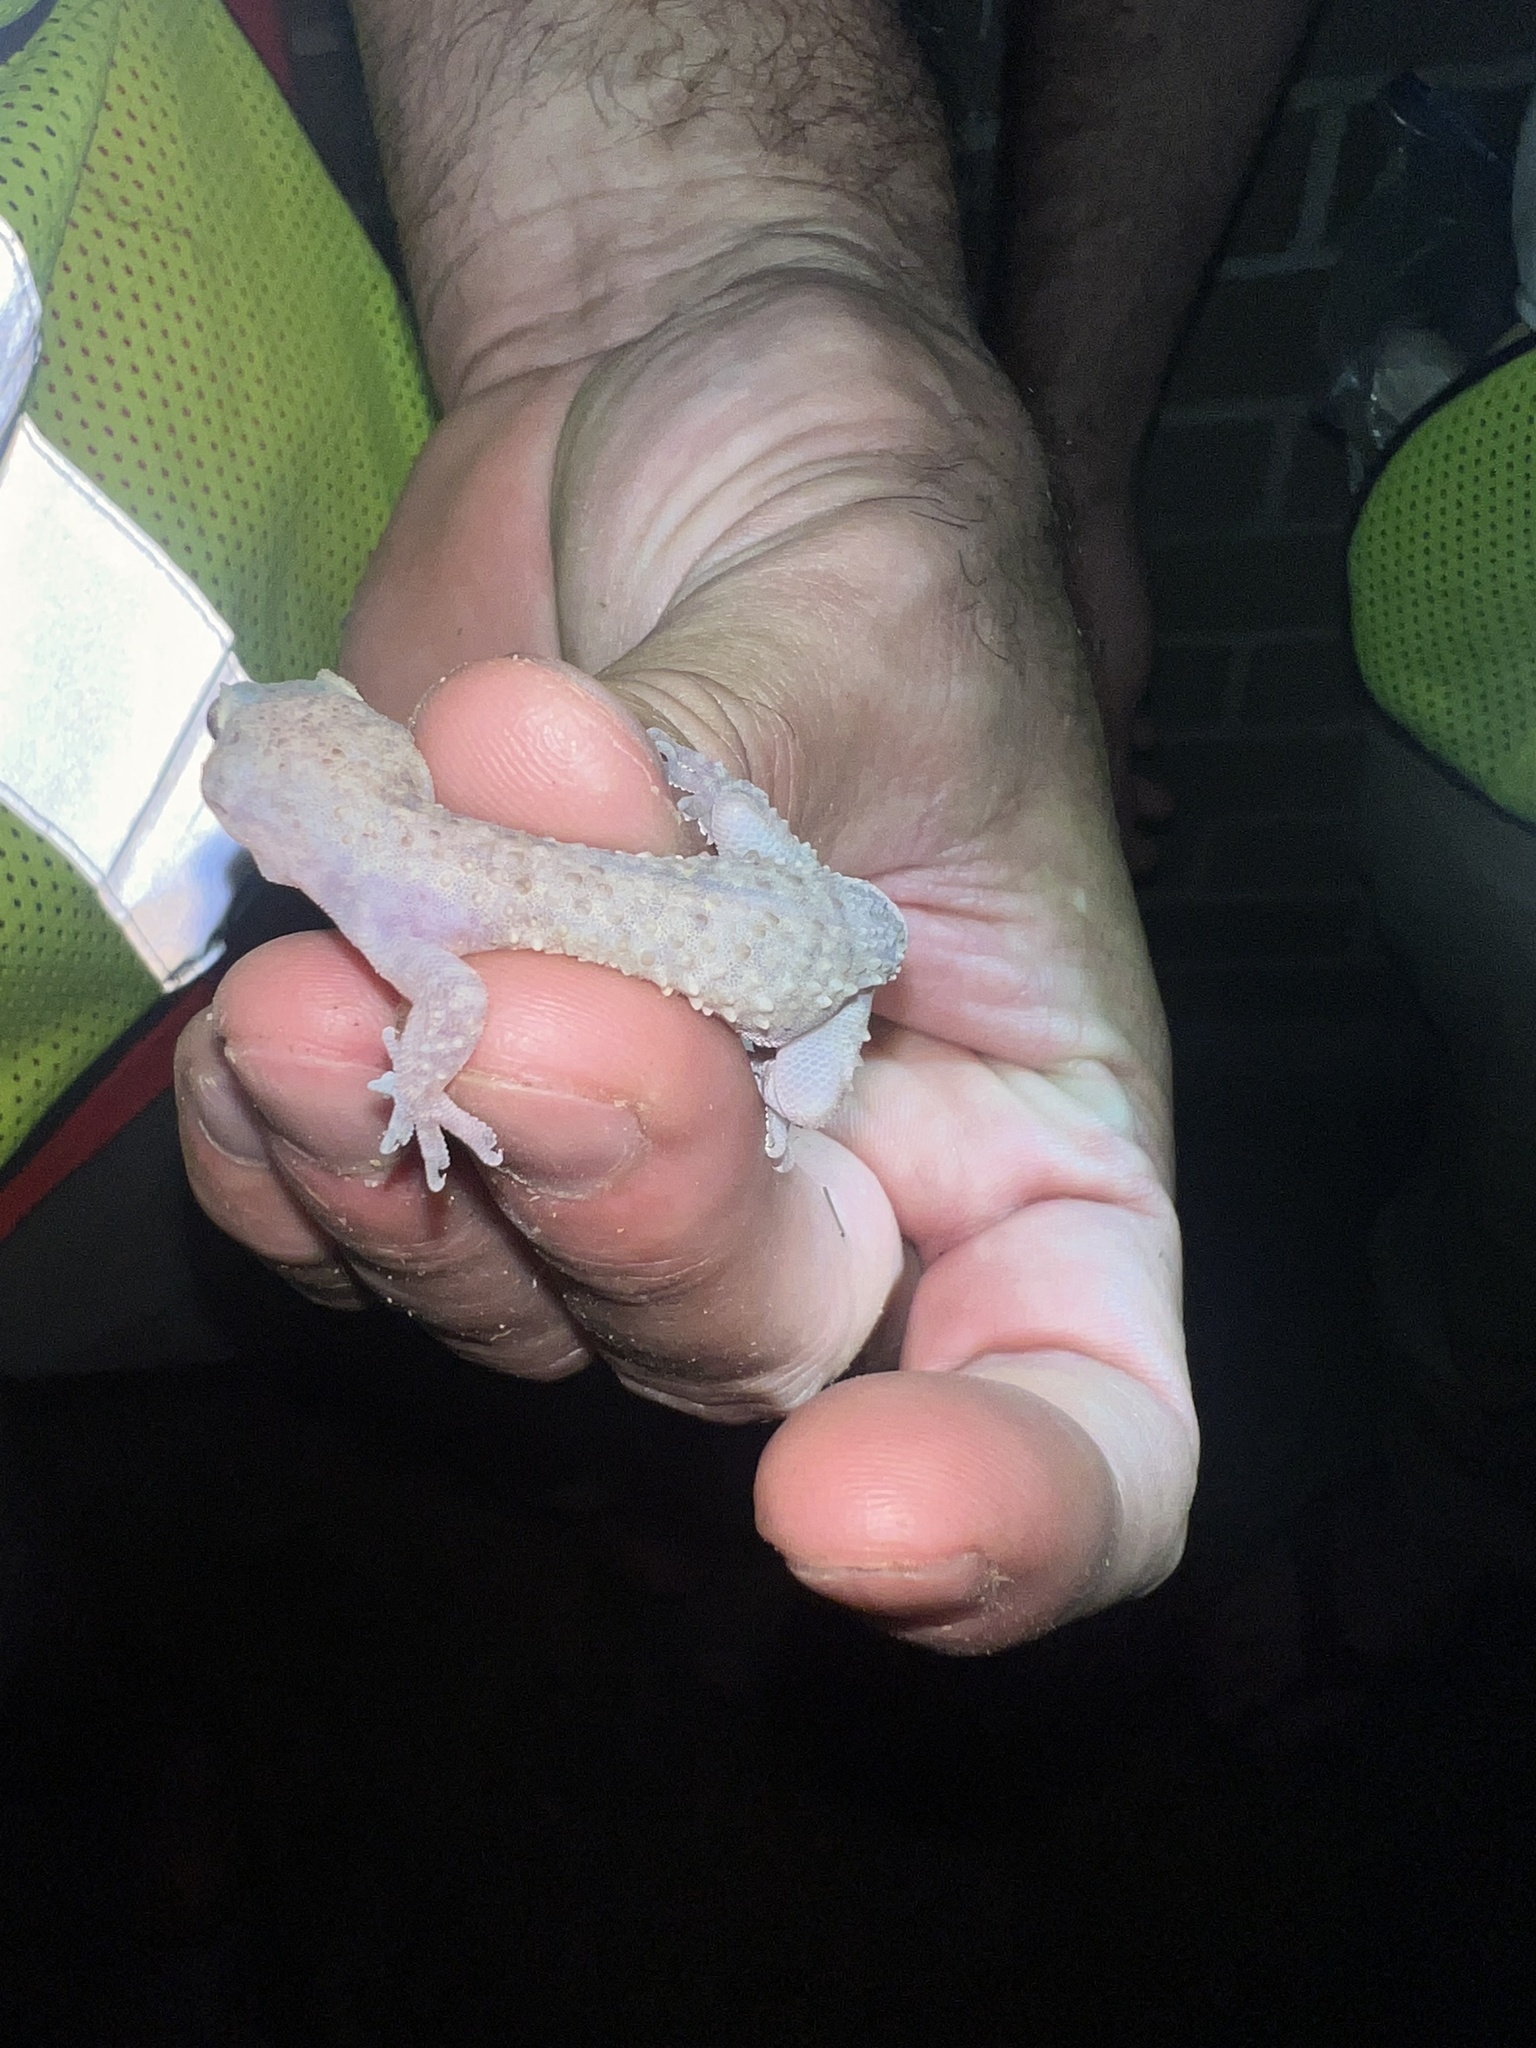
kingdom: Animalia
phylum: Chordata
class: Squamata
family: Gekkonidae
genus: Hemidactylus
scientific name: Hemidactylus turcicus
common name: Turkish gecko
